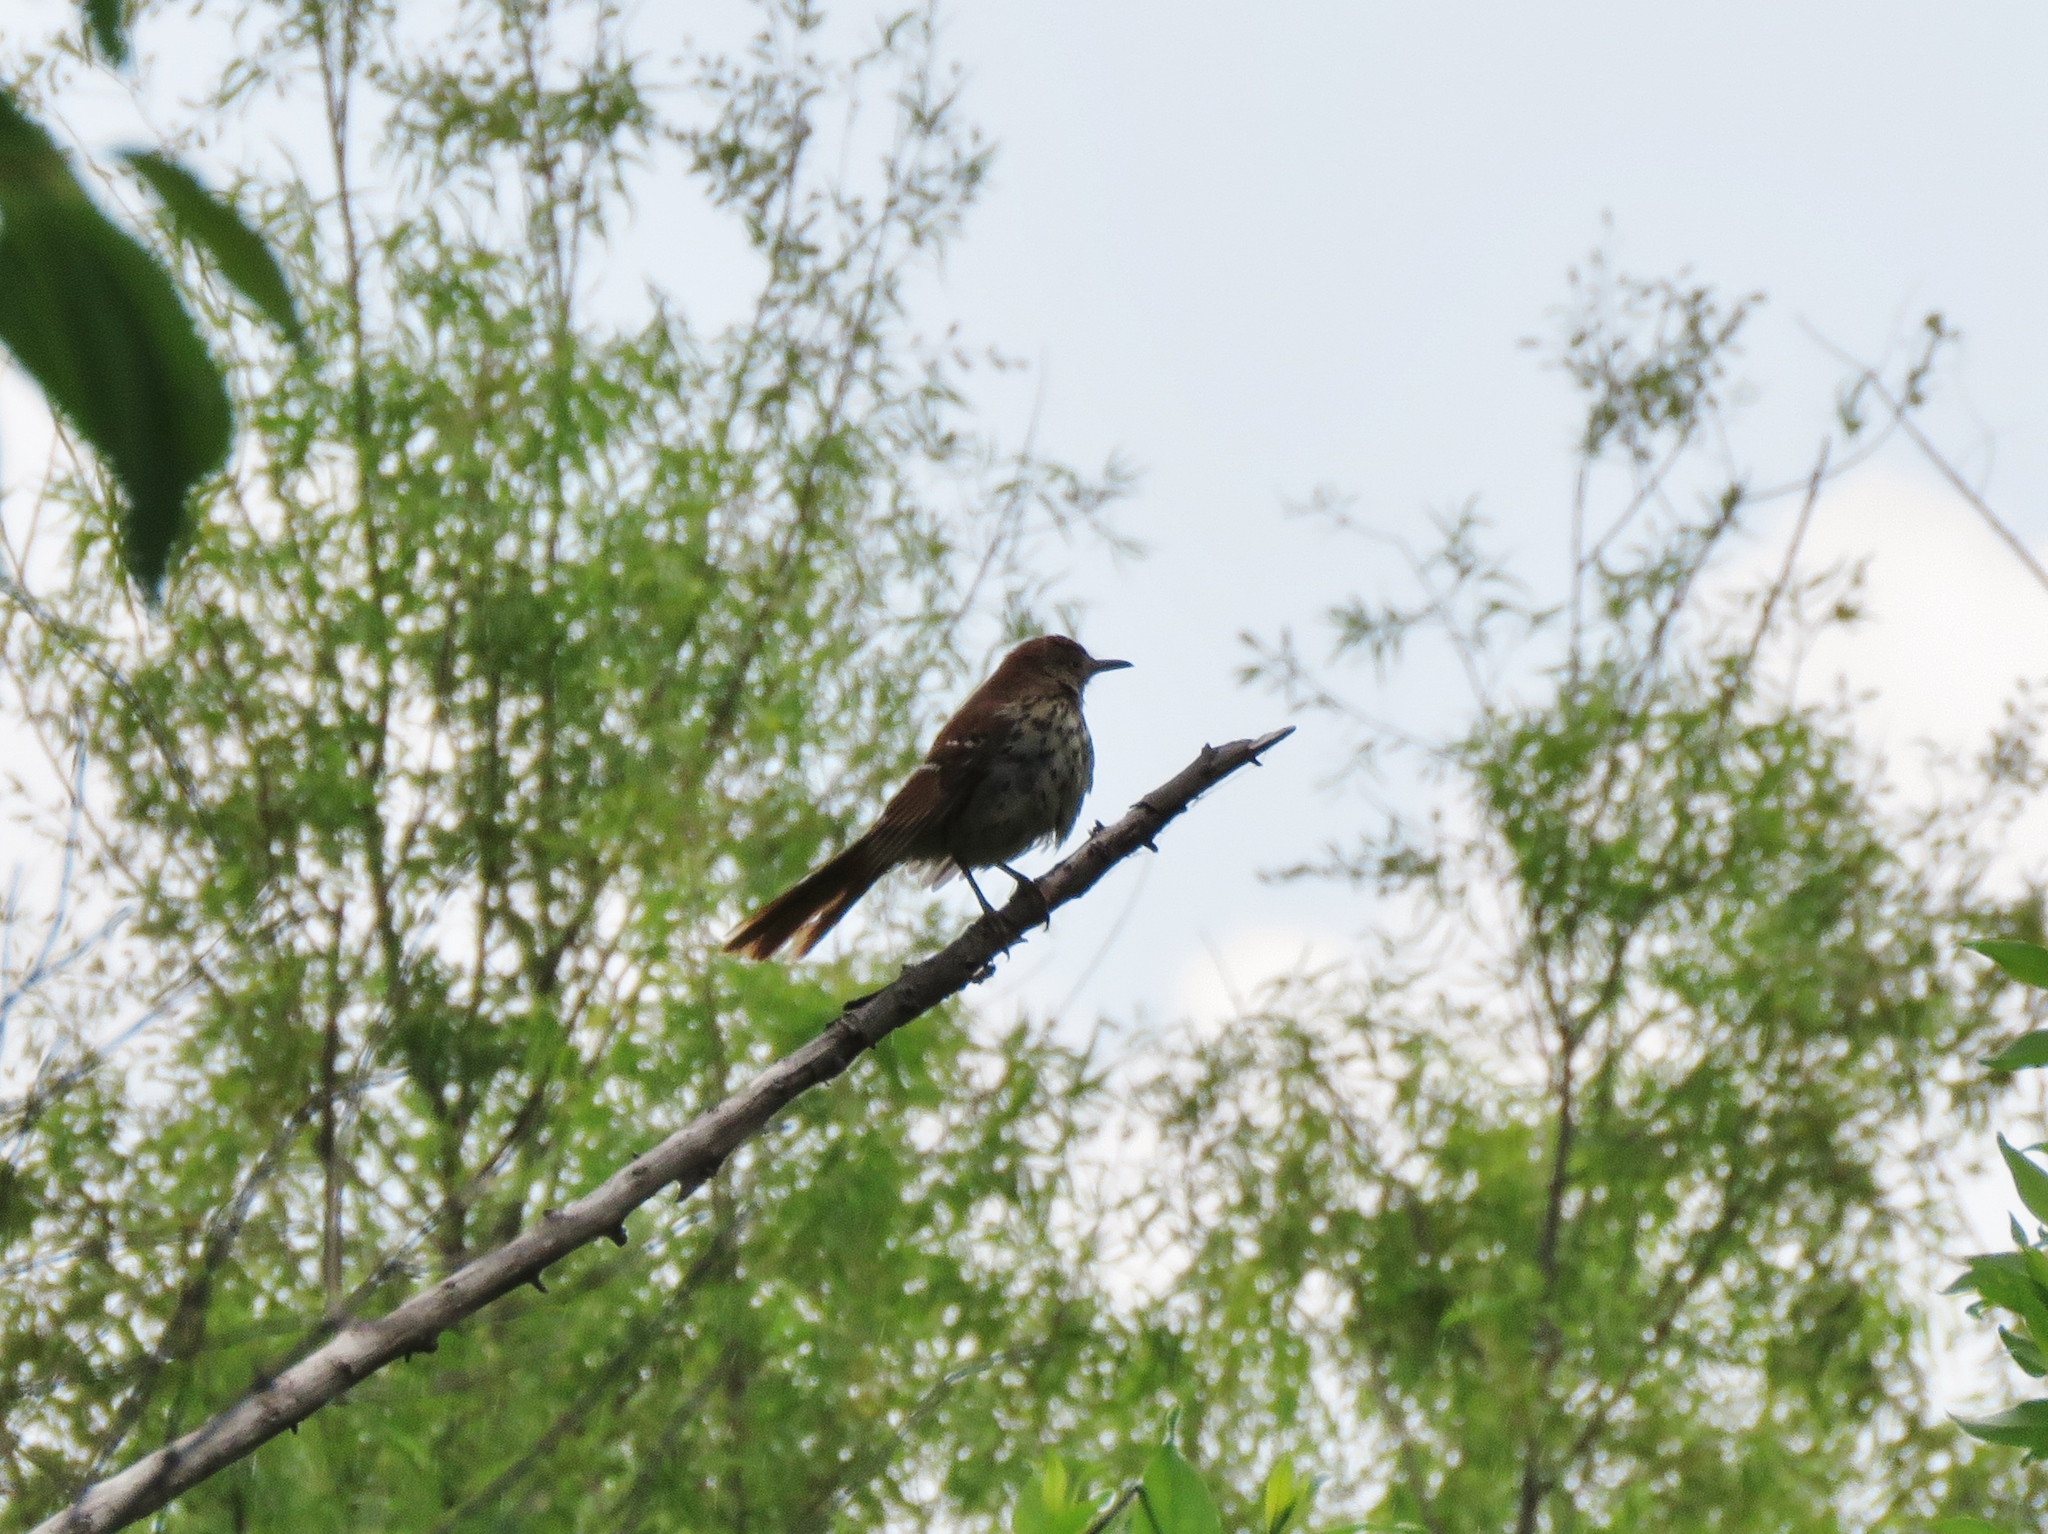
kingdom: Animalia
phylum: Chordata
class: Aves
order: Passeriformes
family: Mimidae
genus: Toxostoma
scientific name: Toxostoma rufum
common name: Brown thrasher
